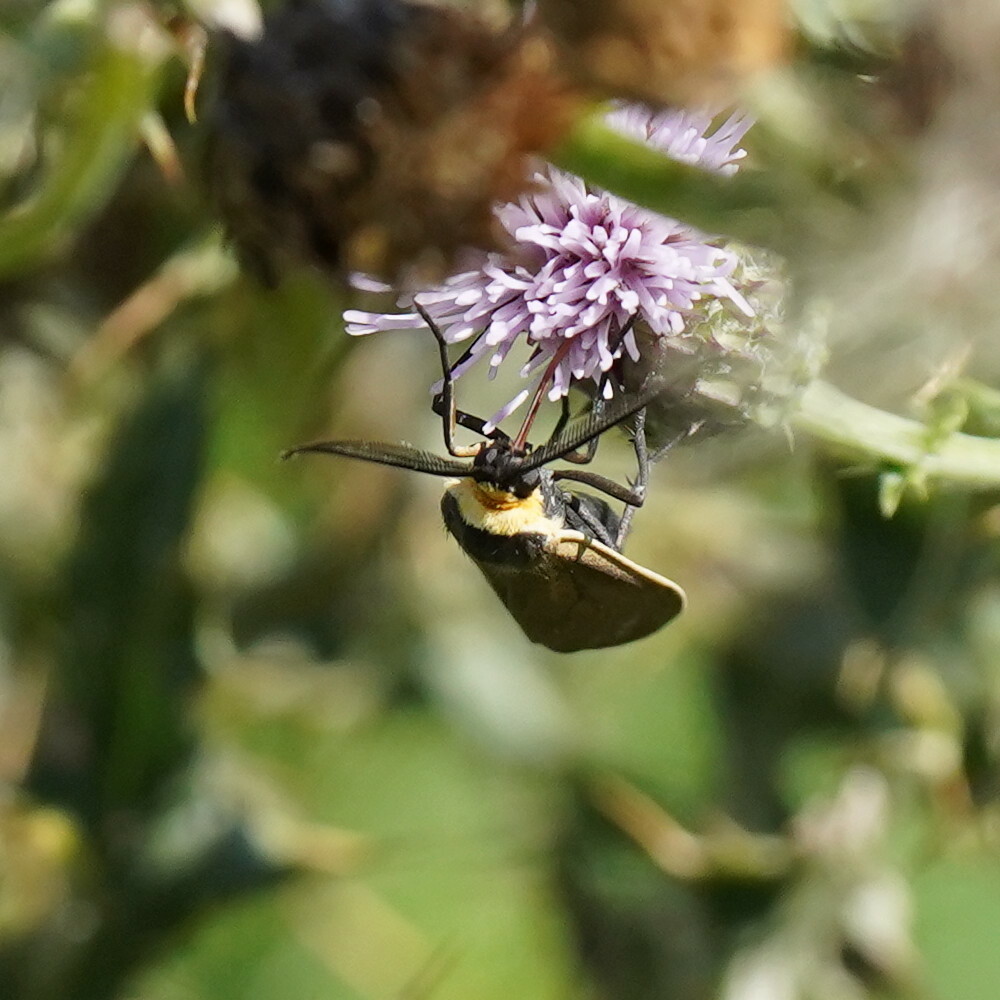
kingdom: Animalia
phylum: Arthropoda
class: Insecta
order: Lepidoptera
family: Erebidae
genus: Cisseps
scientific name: Cisseps fulvicollis
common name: Yellow-collared scape moth
